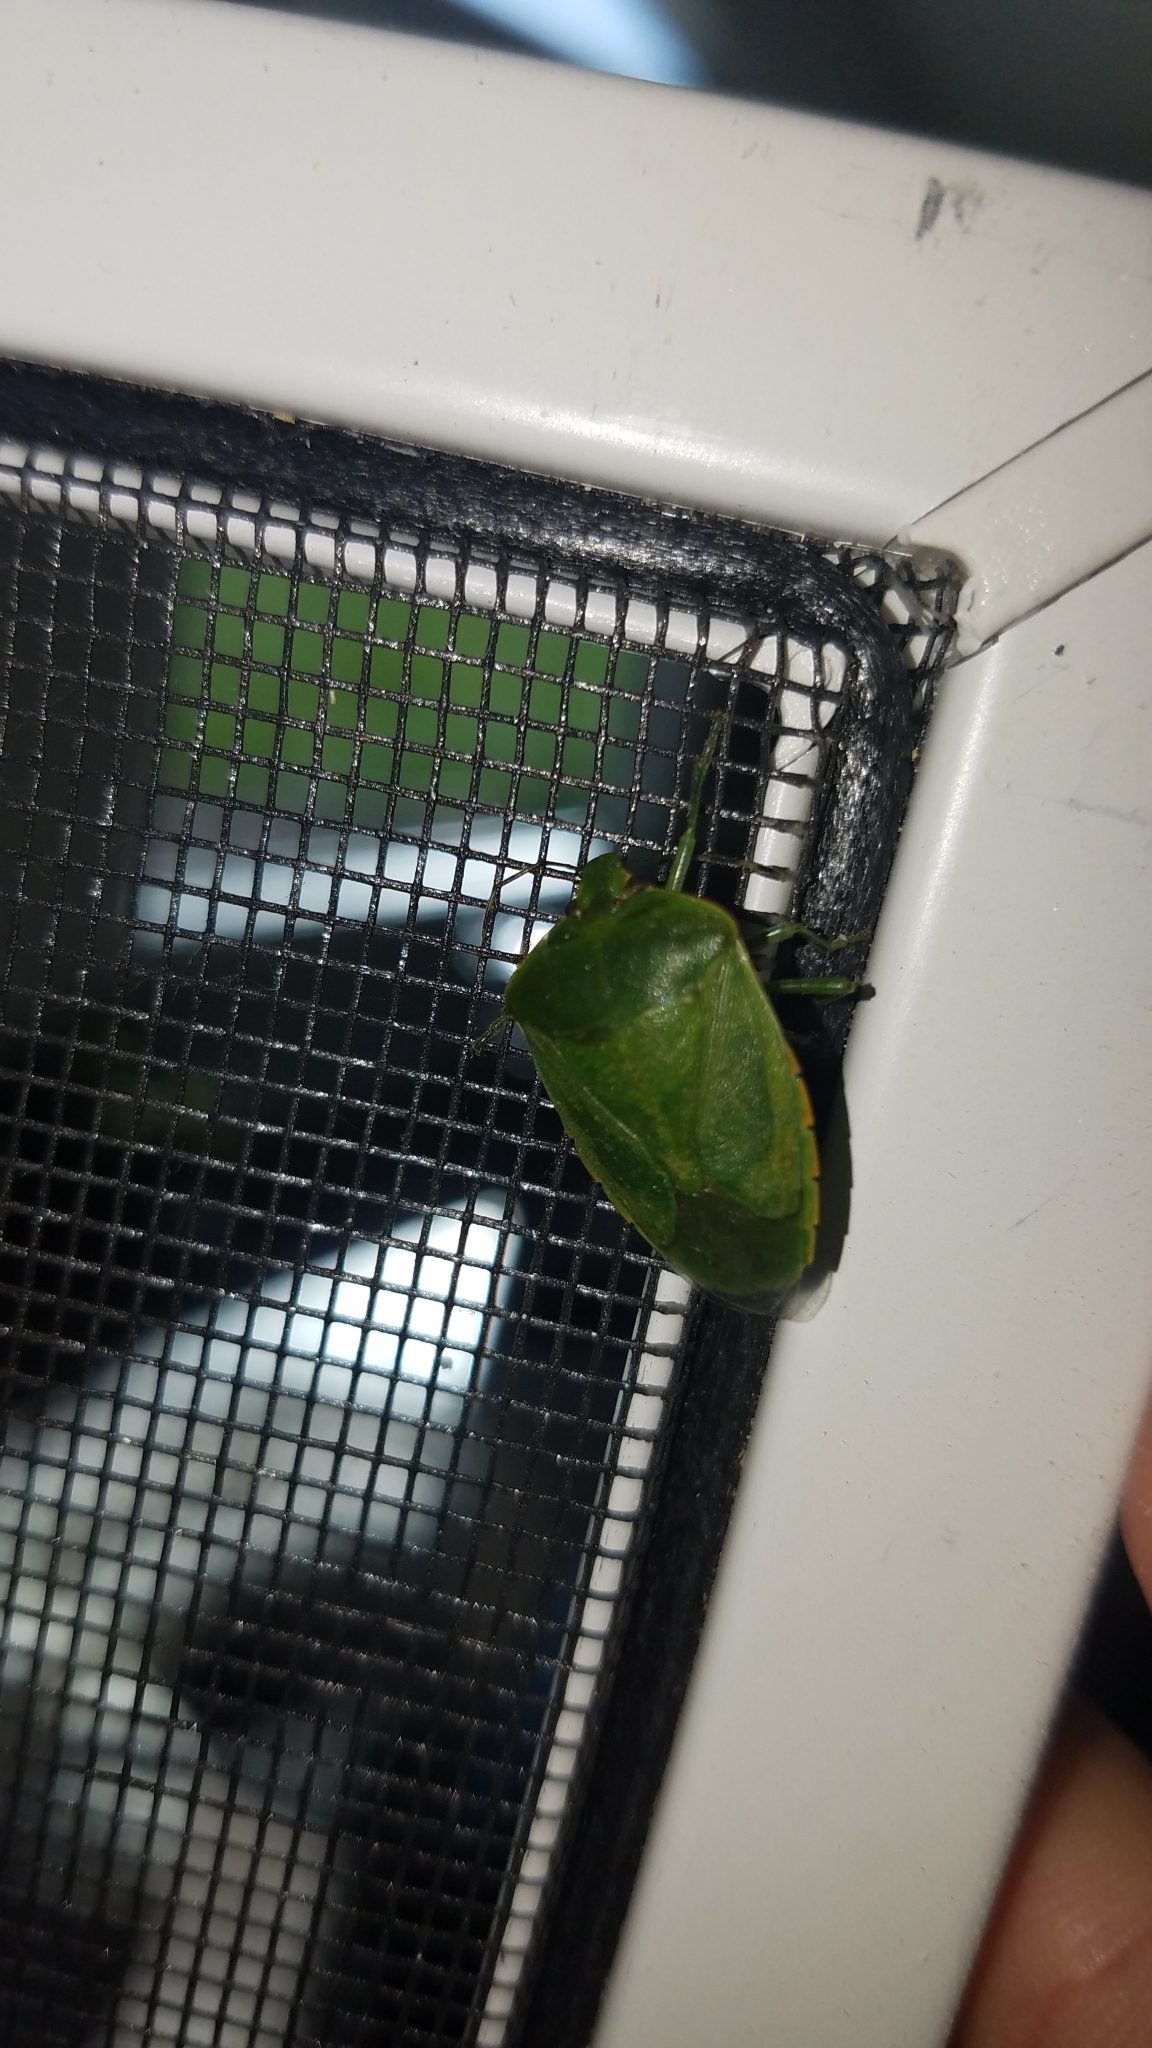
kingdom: Animalia
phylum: Arthropoda
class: Insecta
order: Hemiptera
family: Pentatomidae
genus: Chinavia
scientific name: Chinavia hilaris
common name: Green stink bug
